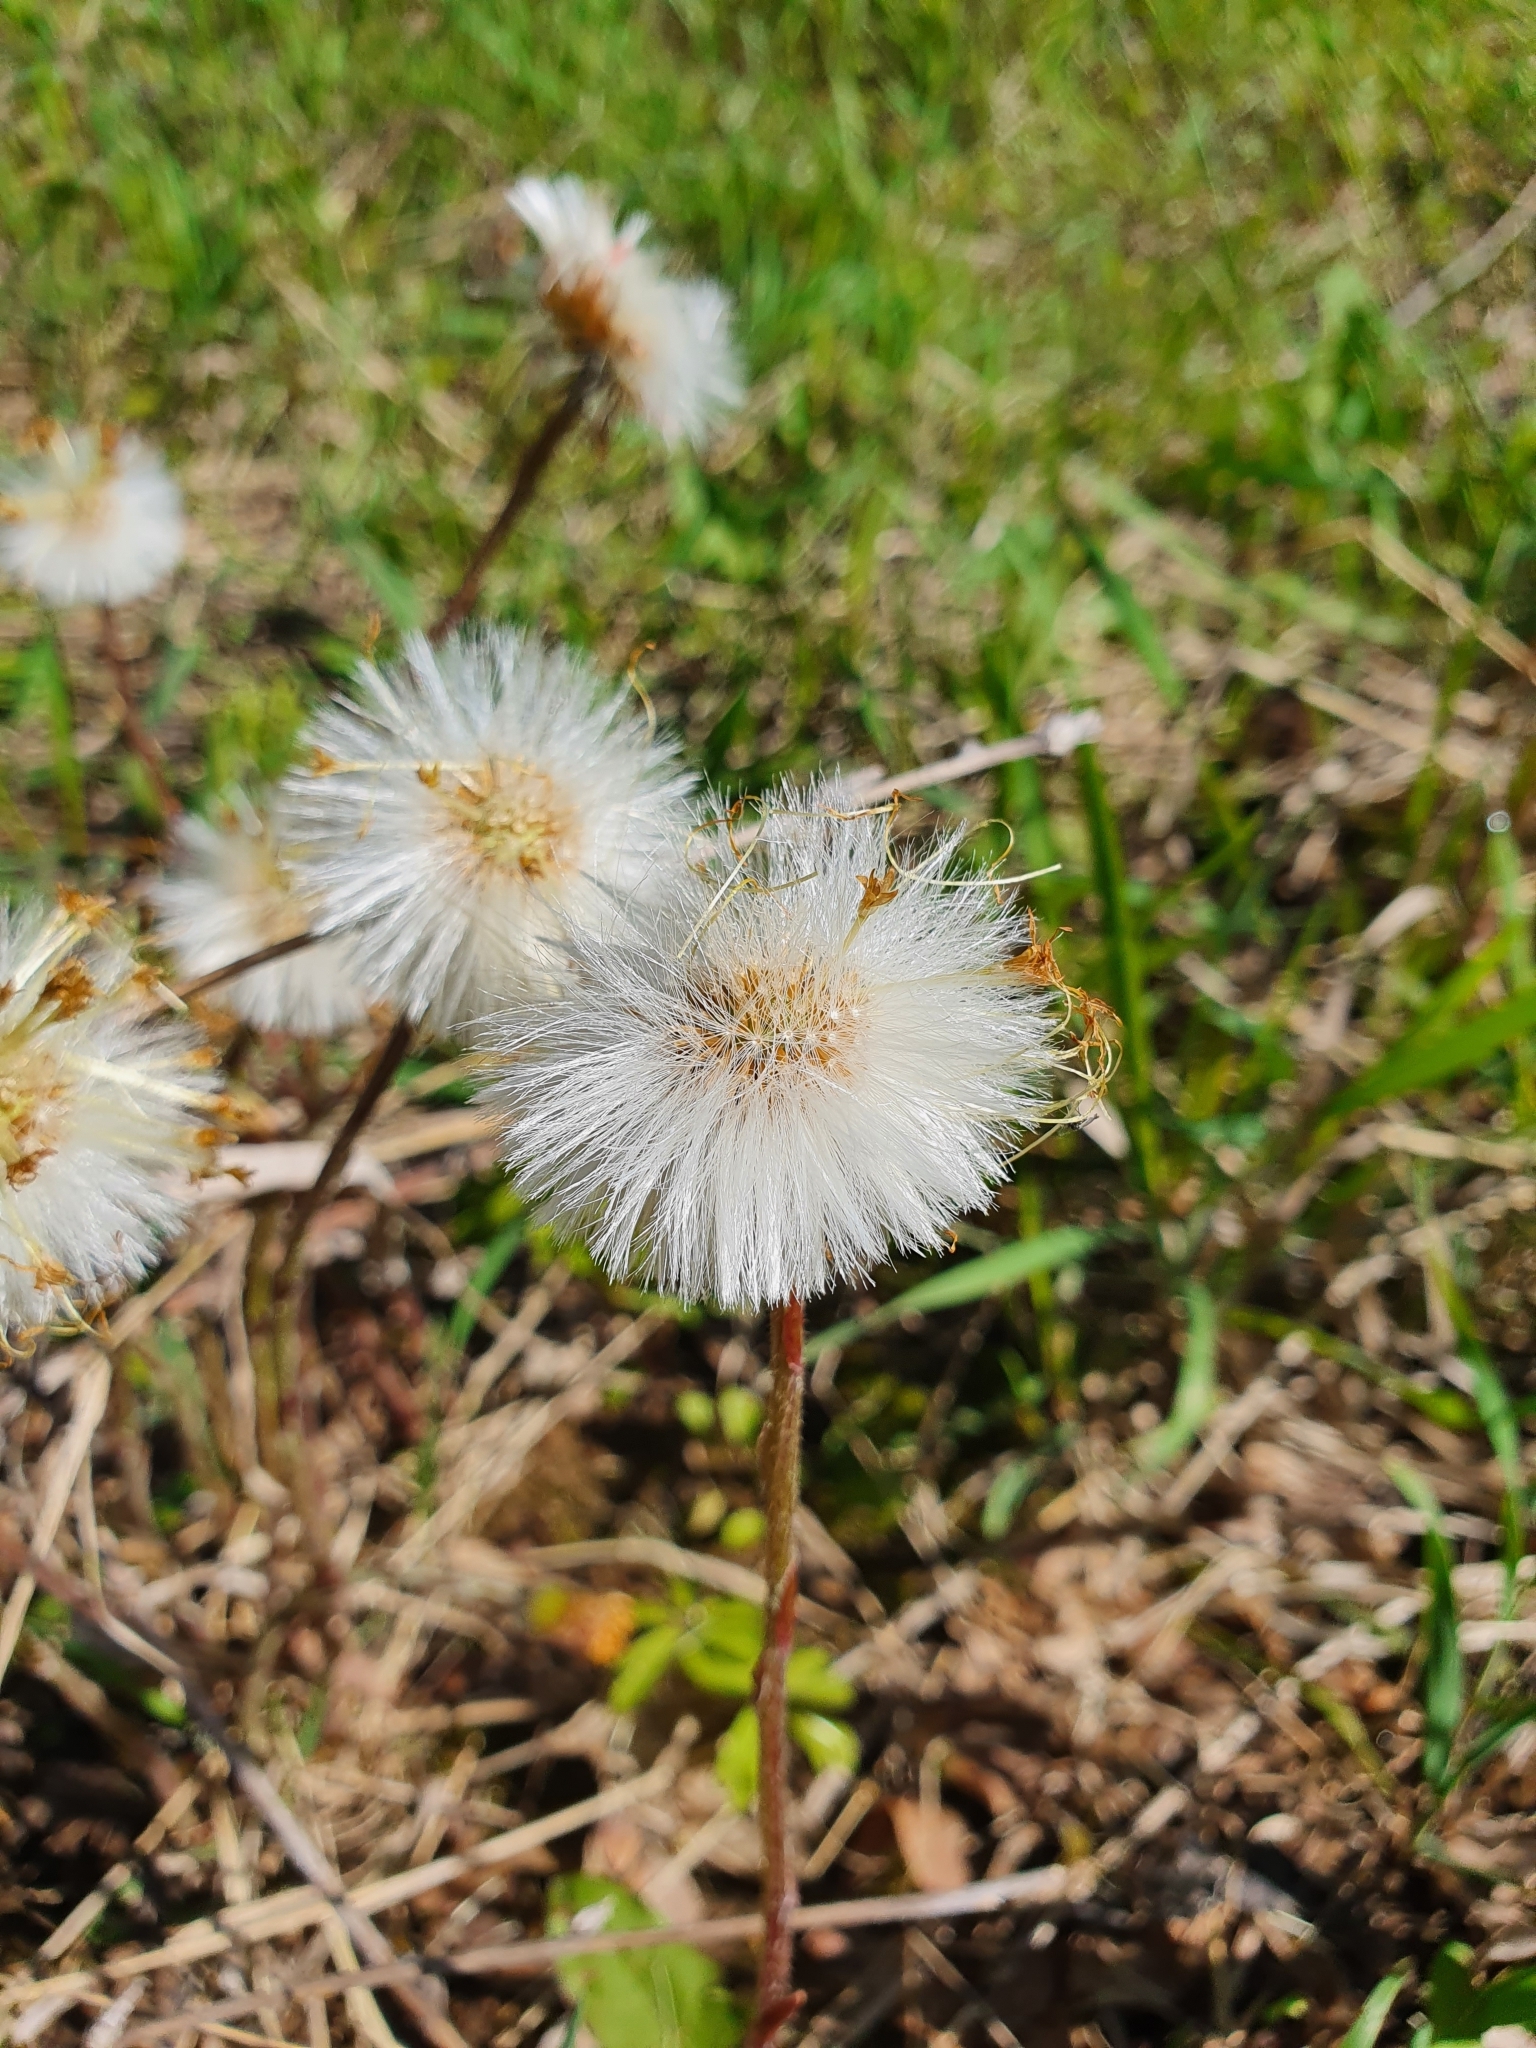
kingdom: Plantae
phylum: Tracheophyta
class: Magnoliopsida
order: Asterales
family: Asteraceae
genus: Tussilago
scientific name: Tussilago farfara
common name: Coltsfoot
